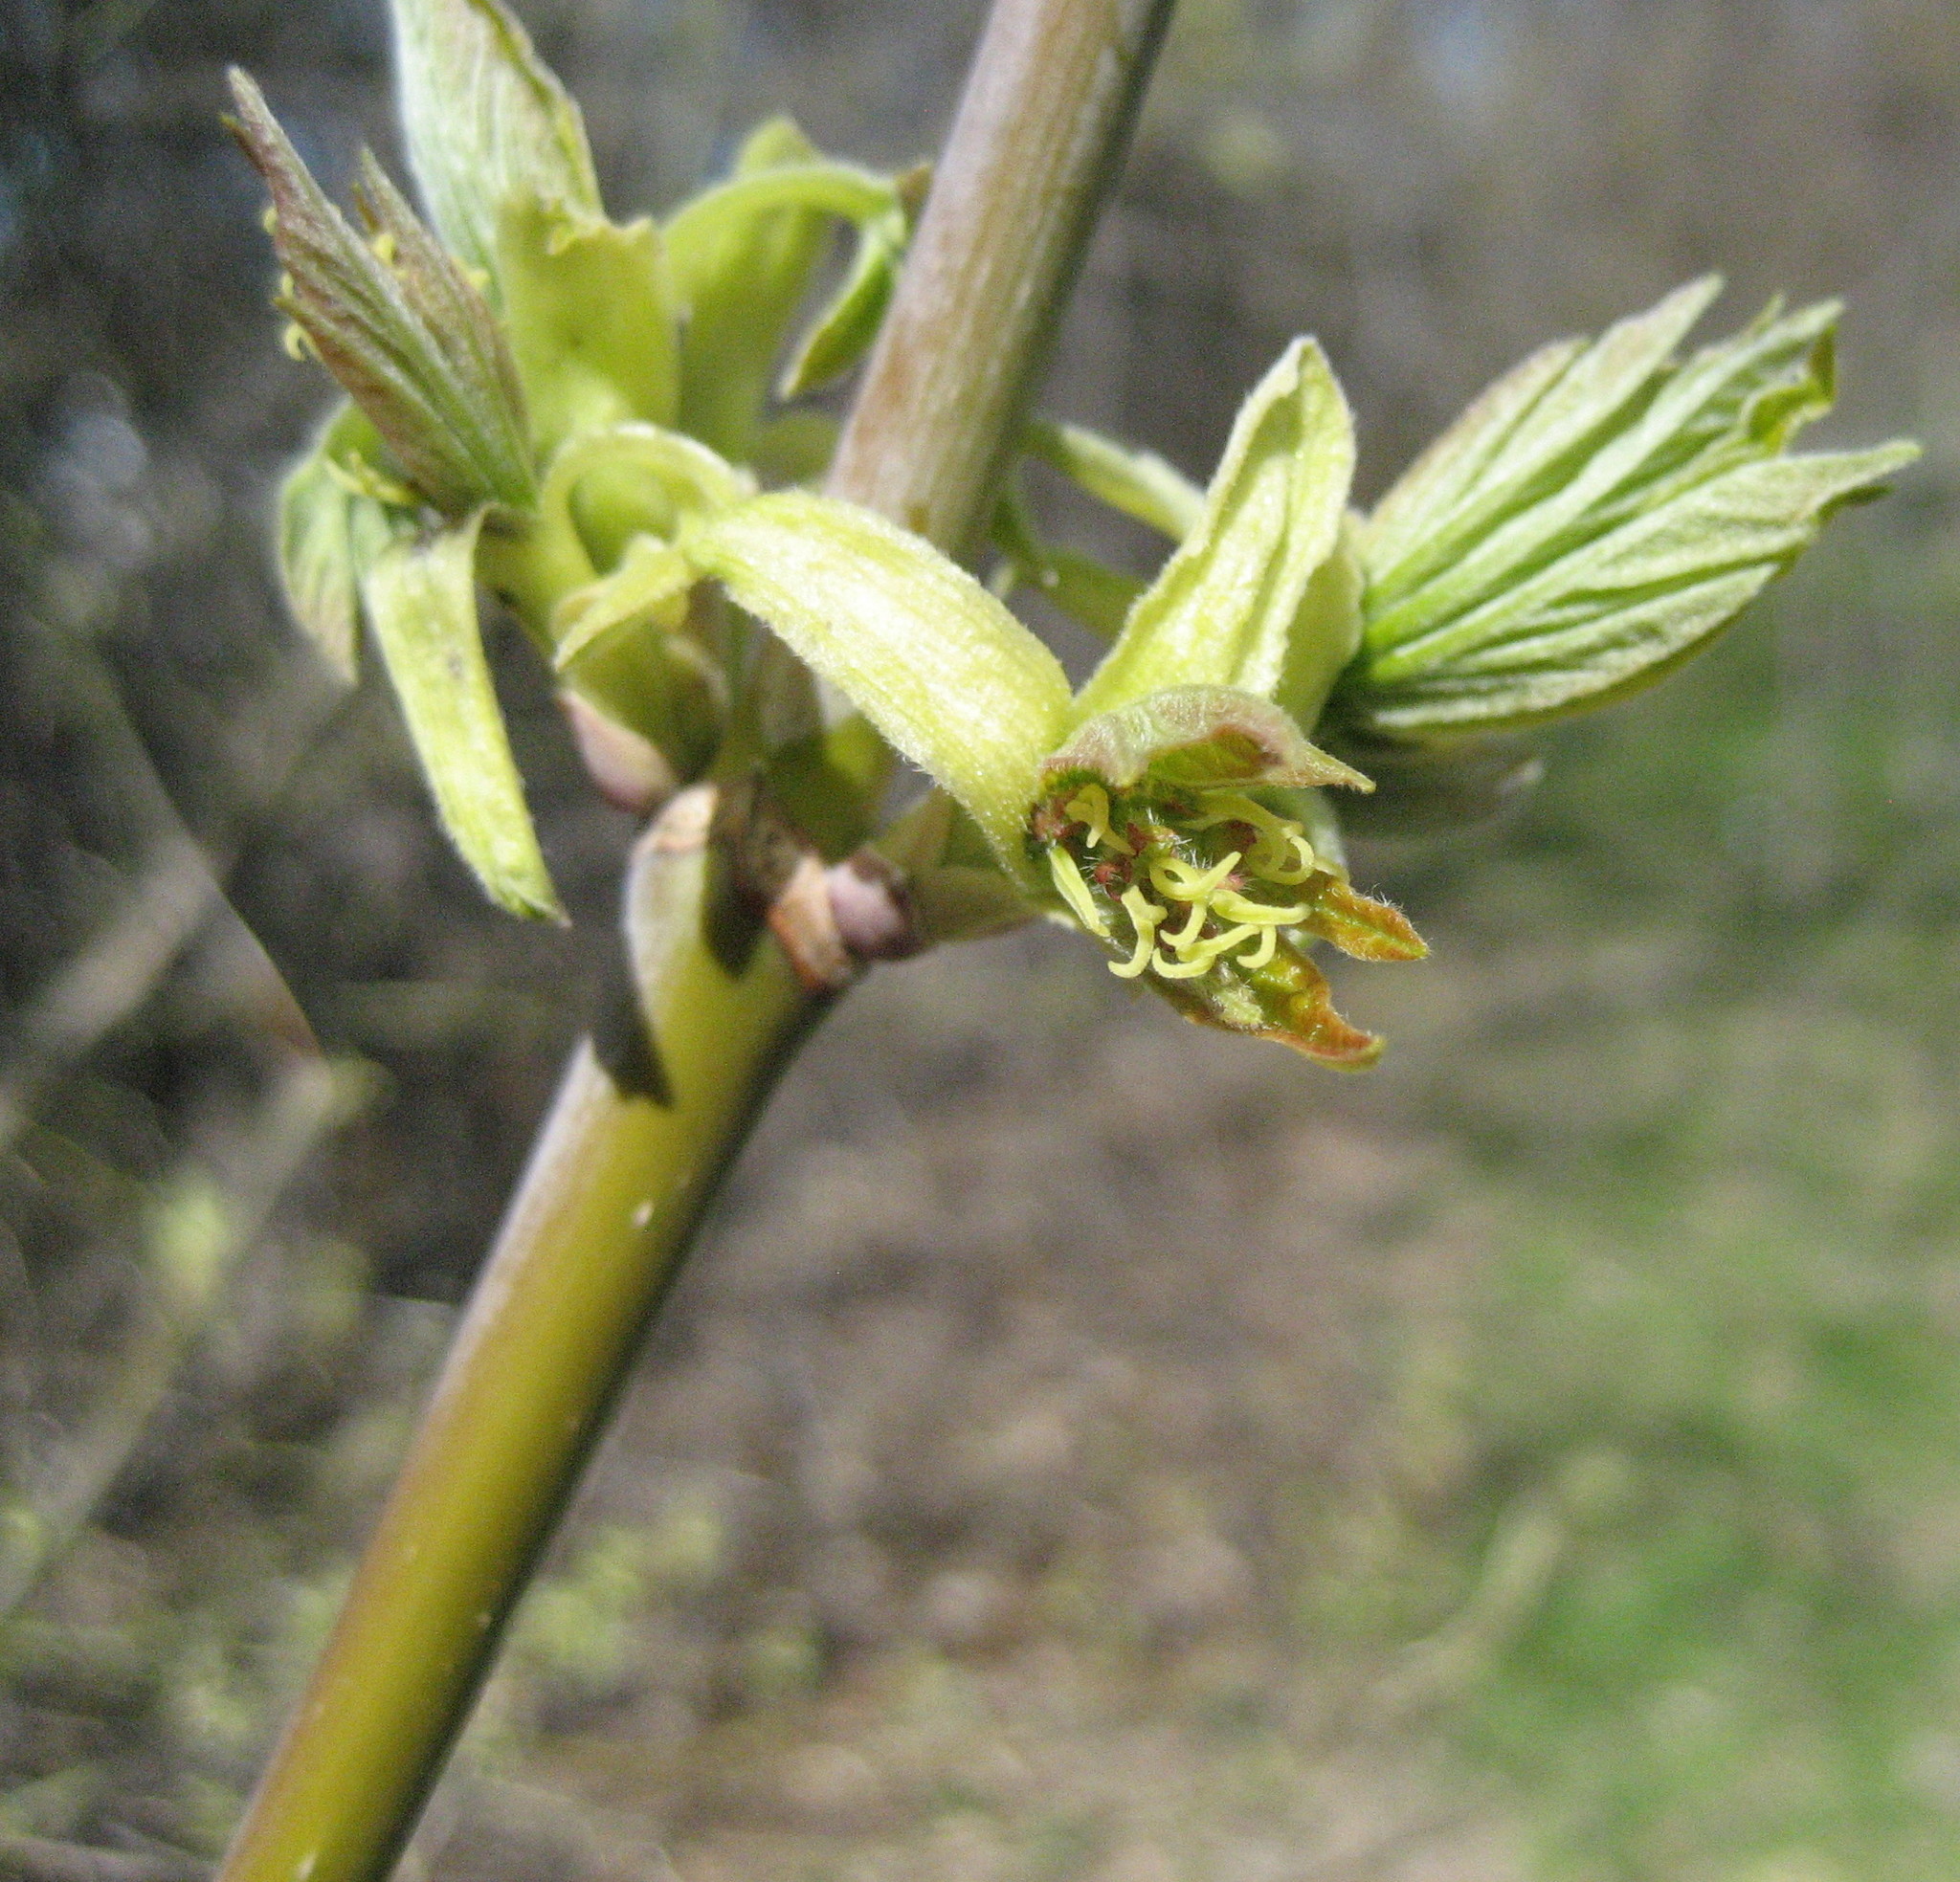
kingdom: Plantae
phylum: Tracheophyta
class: Magnoliopsida
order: Sapindales
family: Sapindaceae
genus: Acer
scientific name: Acer negundo
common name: Ashleaf maple
